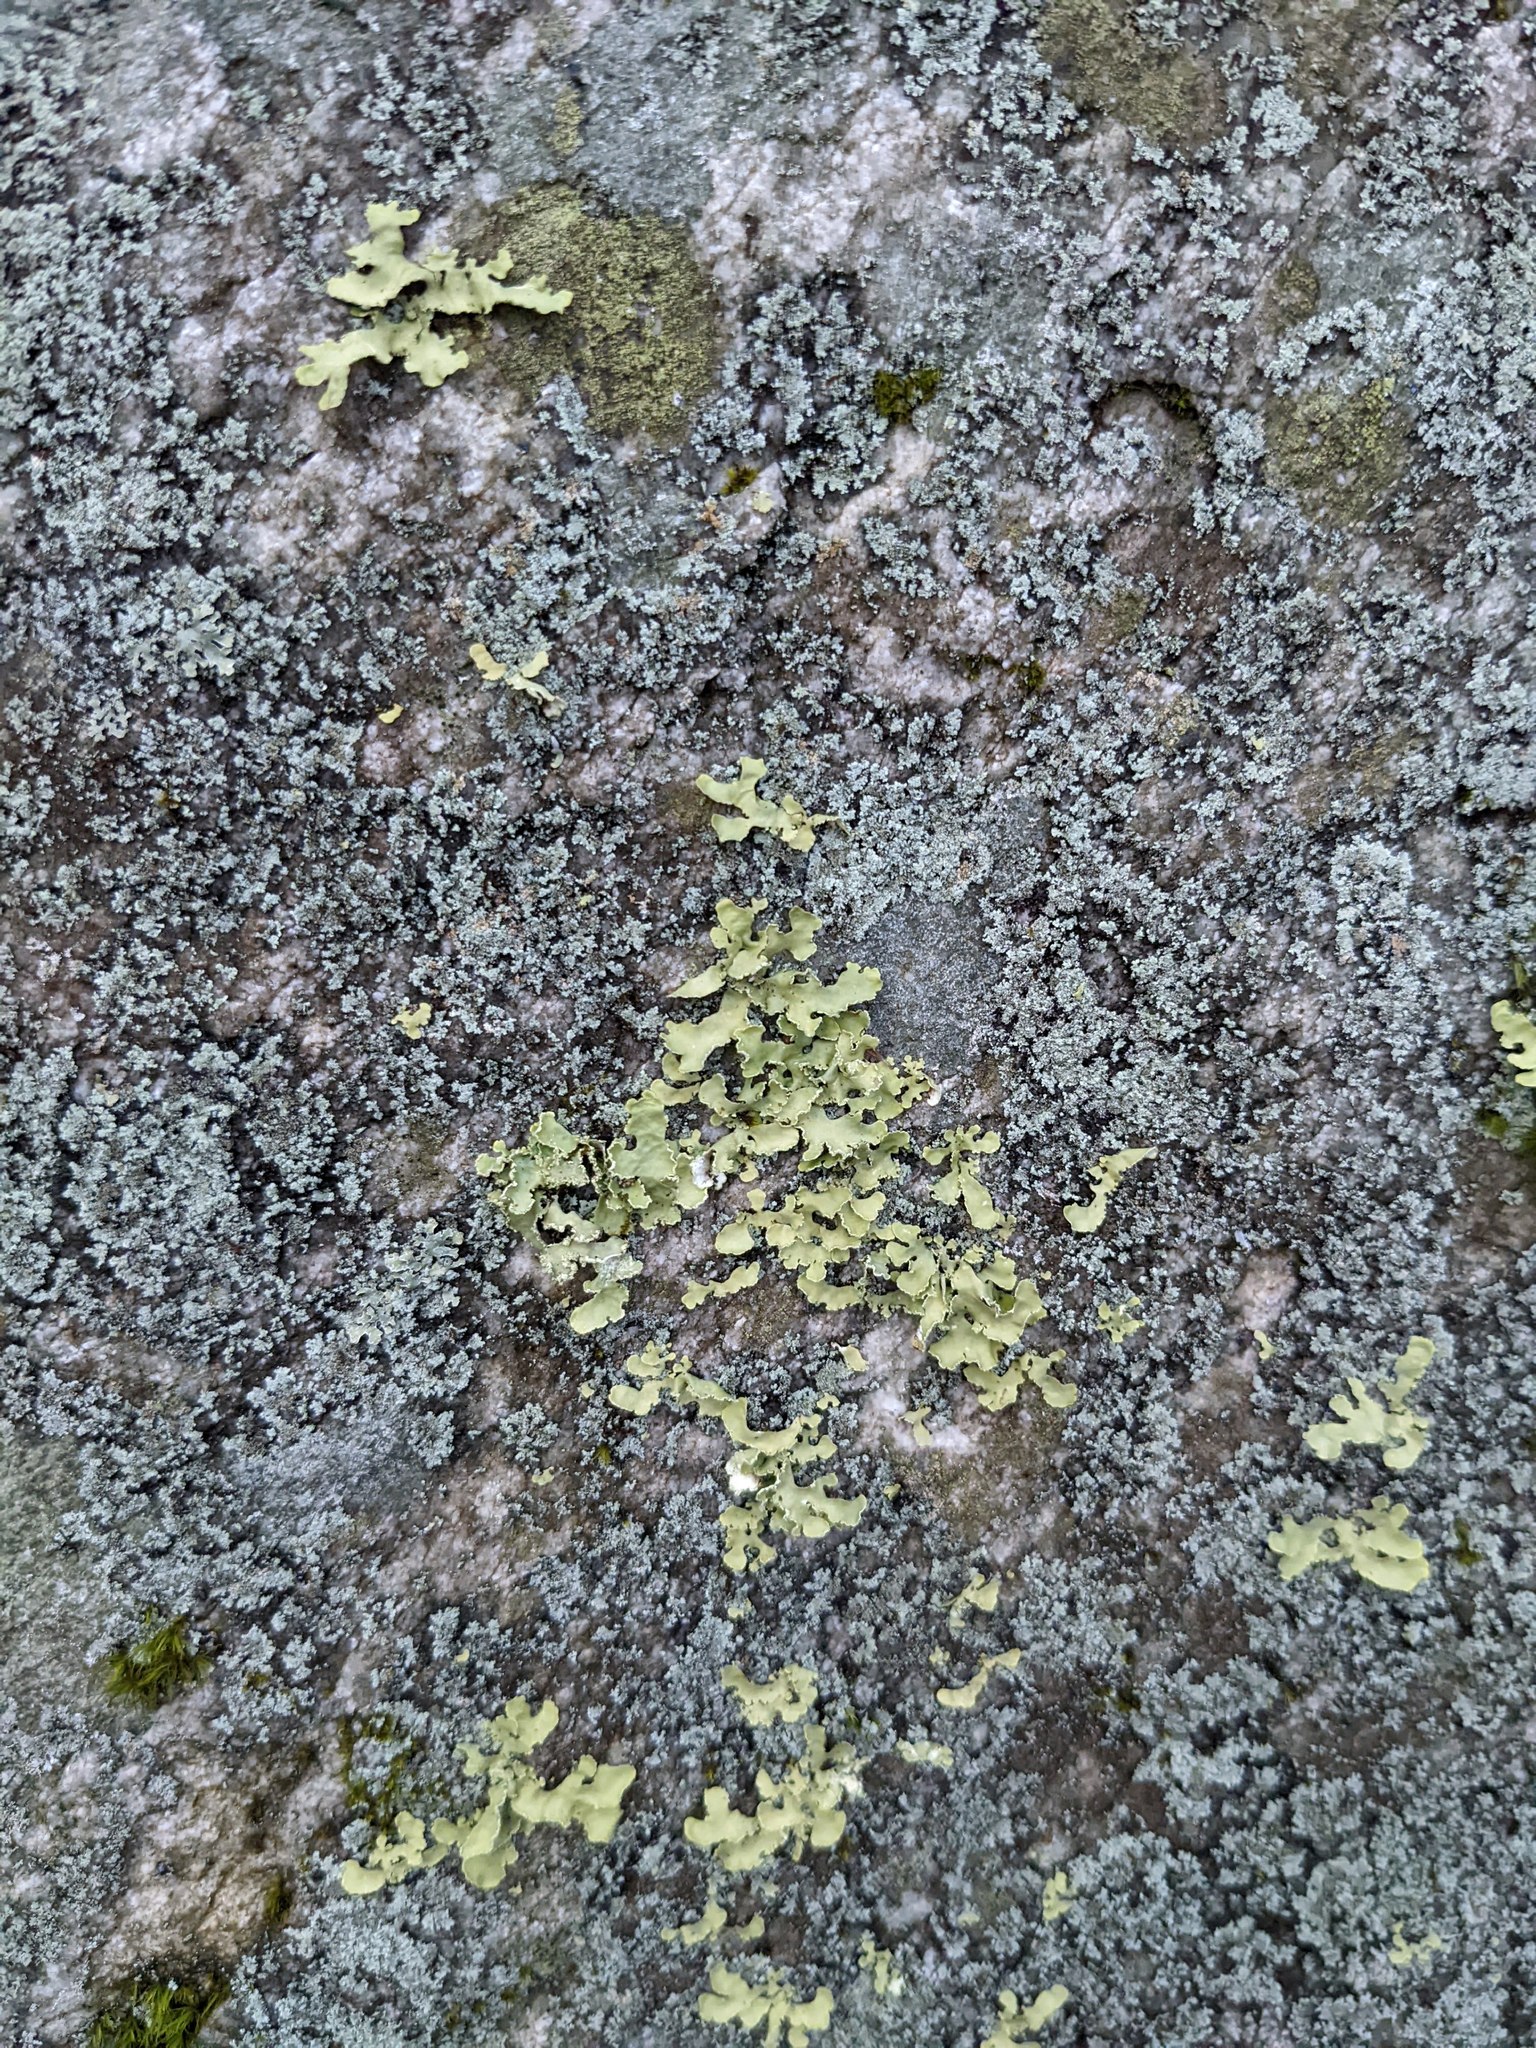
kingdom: Fungi
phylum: Ascomycota
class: Lecanoromycetes
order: Lecanorales
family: Parmeliaceae
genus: Usnocetraria
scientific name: Usnocetraria oakesiana
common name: Yellow ribbon lichen
